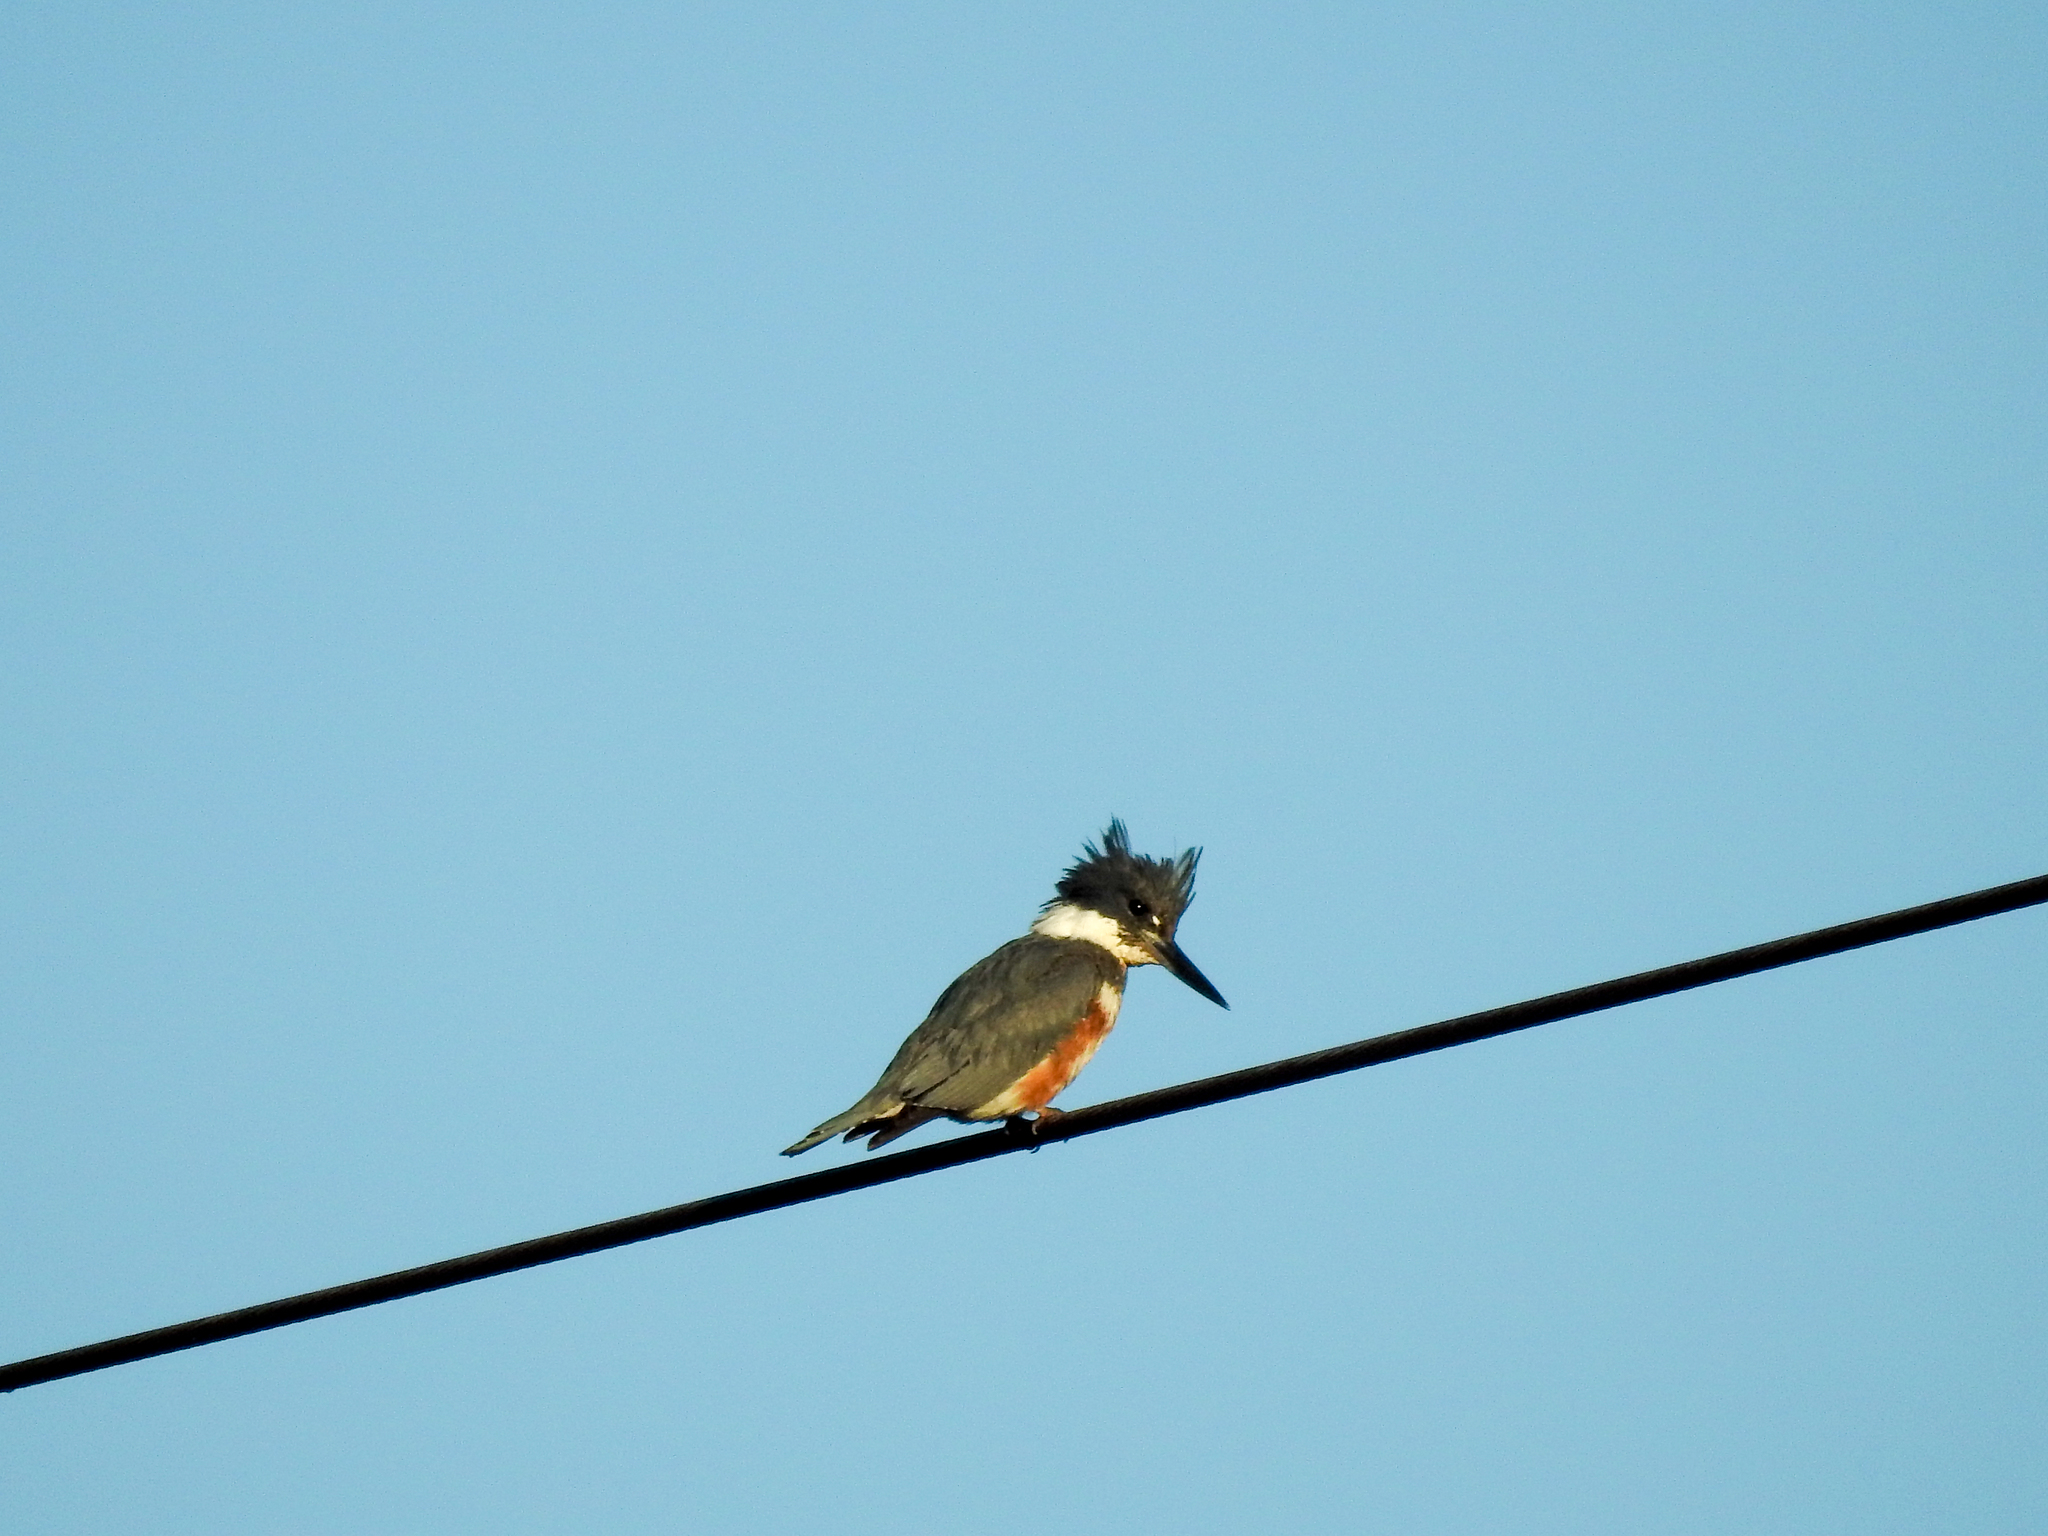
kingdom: Animalia
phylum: Chordata
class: Aves
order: Coraciiformes
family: Alcedinidae
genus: Megaceryle
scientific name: Megaceryle alcyon
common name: Belted kingfisher
